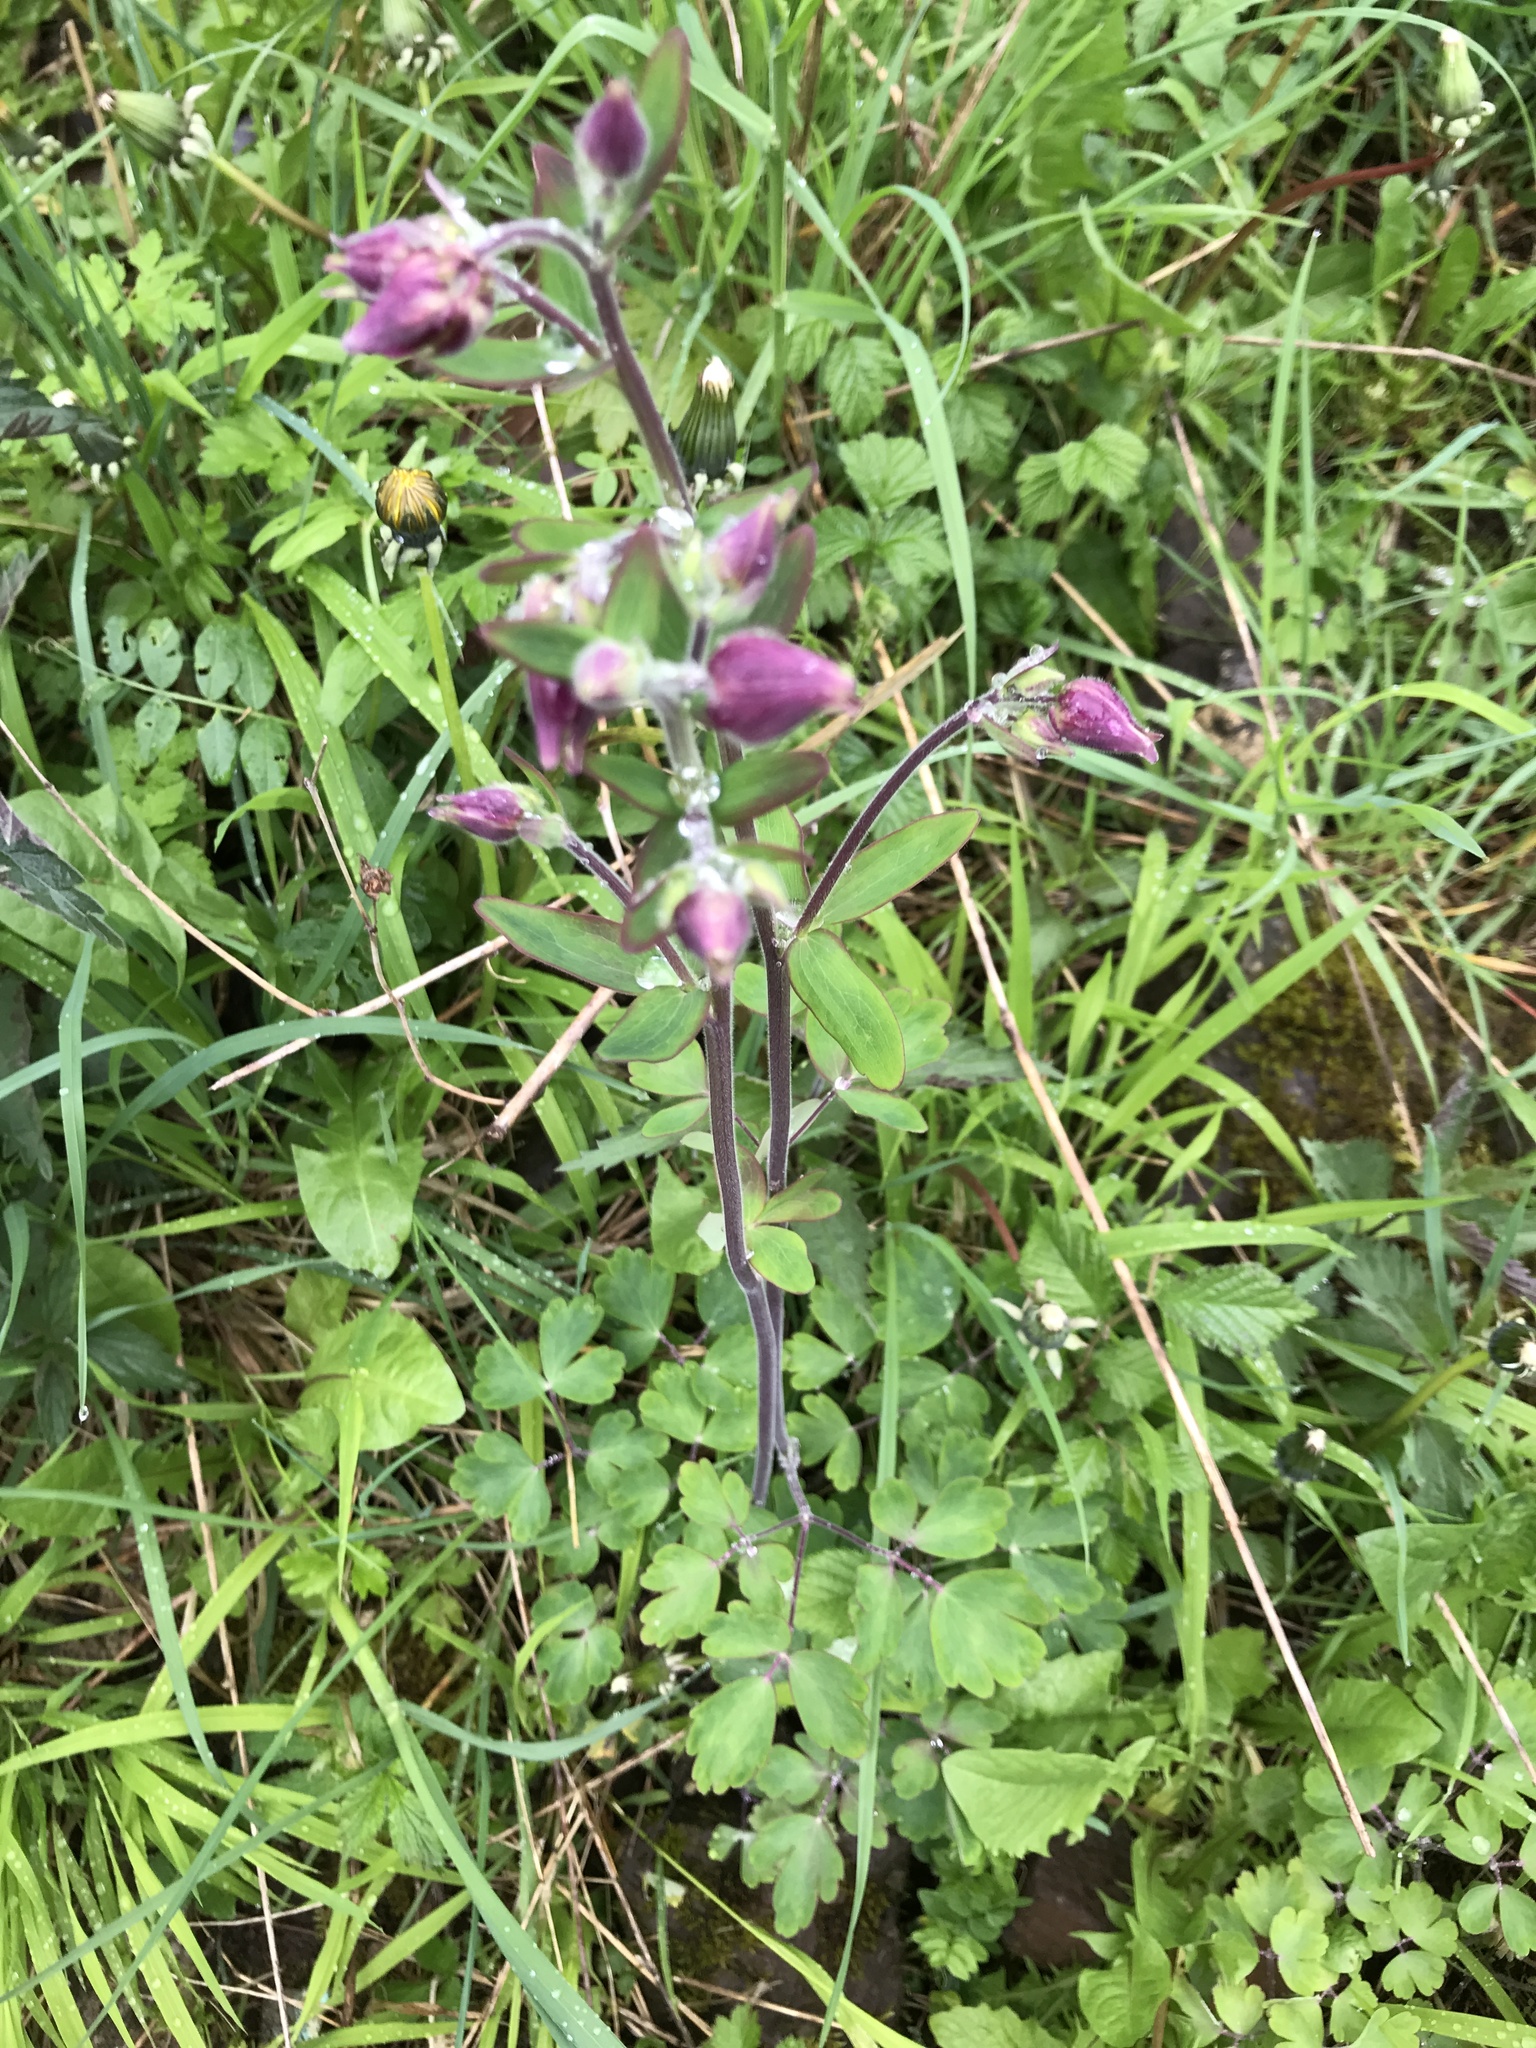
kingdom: Plantae
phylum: Tracheophyta
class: Magnoliopsida
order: Ranunculales
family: Ranunculaceae
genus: Aquilegia
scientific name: Aquilegia vulgaris
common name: Columbine
